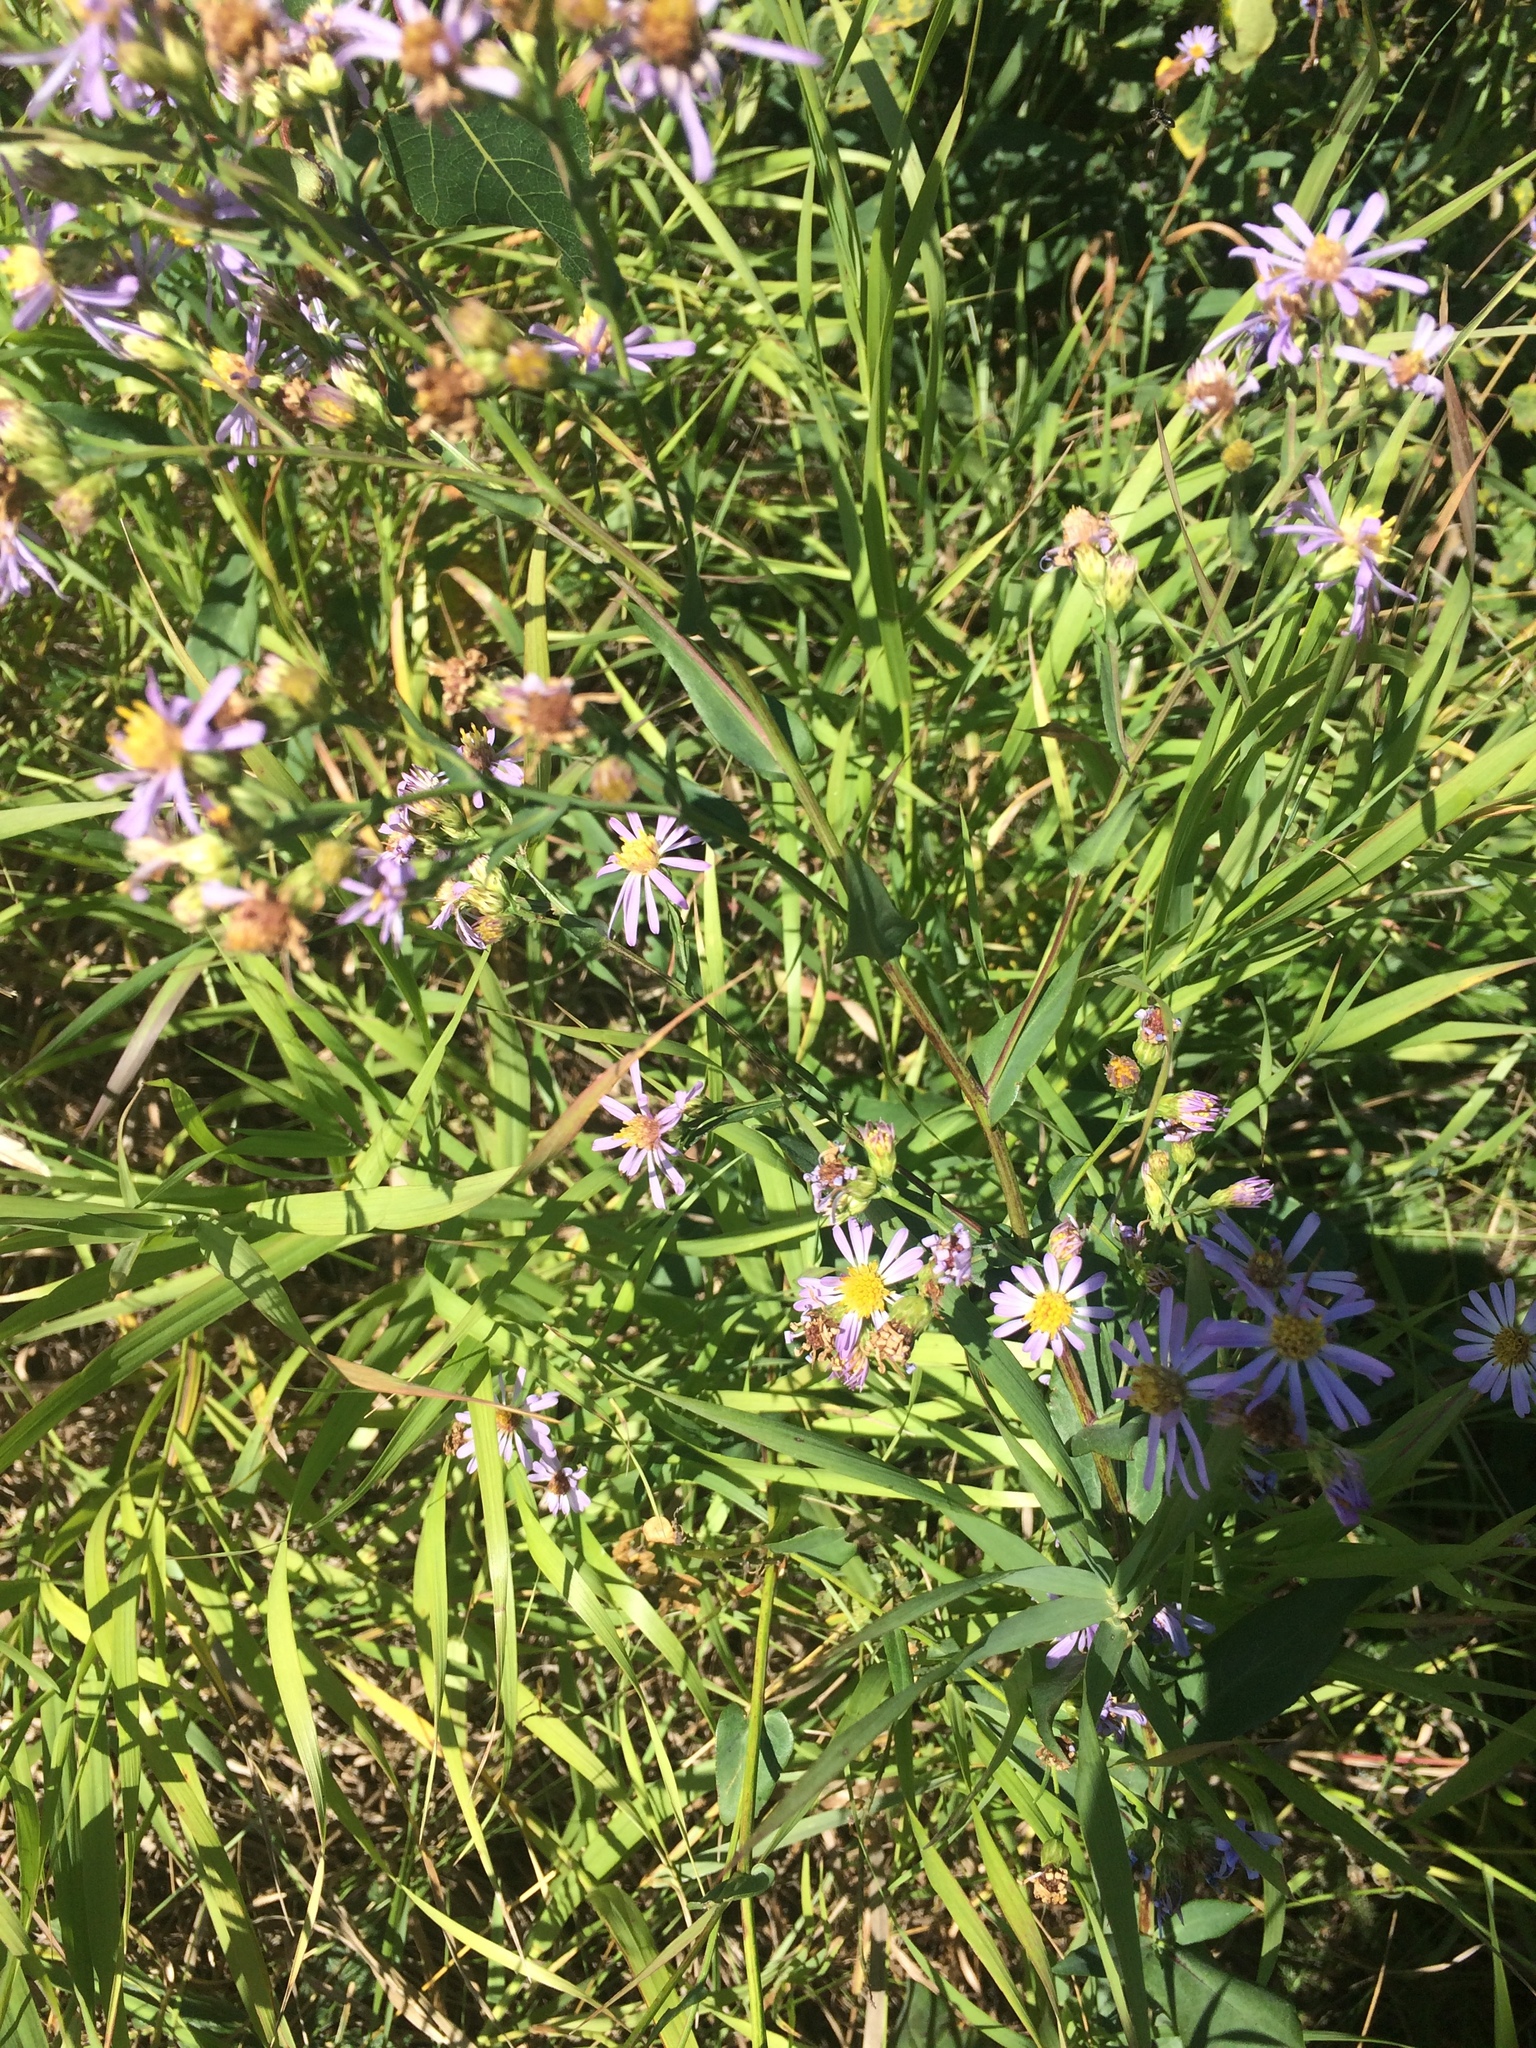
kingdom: Plantae
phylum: Tracheophyta
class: Magnoliopsida
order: Asterales
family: Asteraceae
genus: Symphyotrichum
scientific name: Symphyotrichum laeve
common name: Glaucous aster
